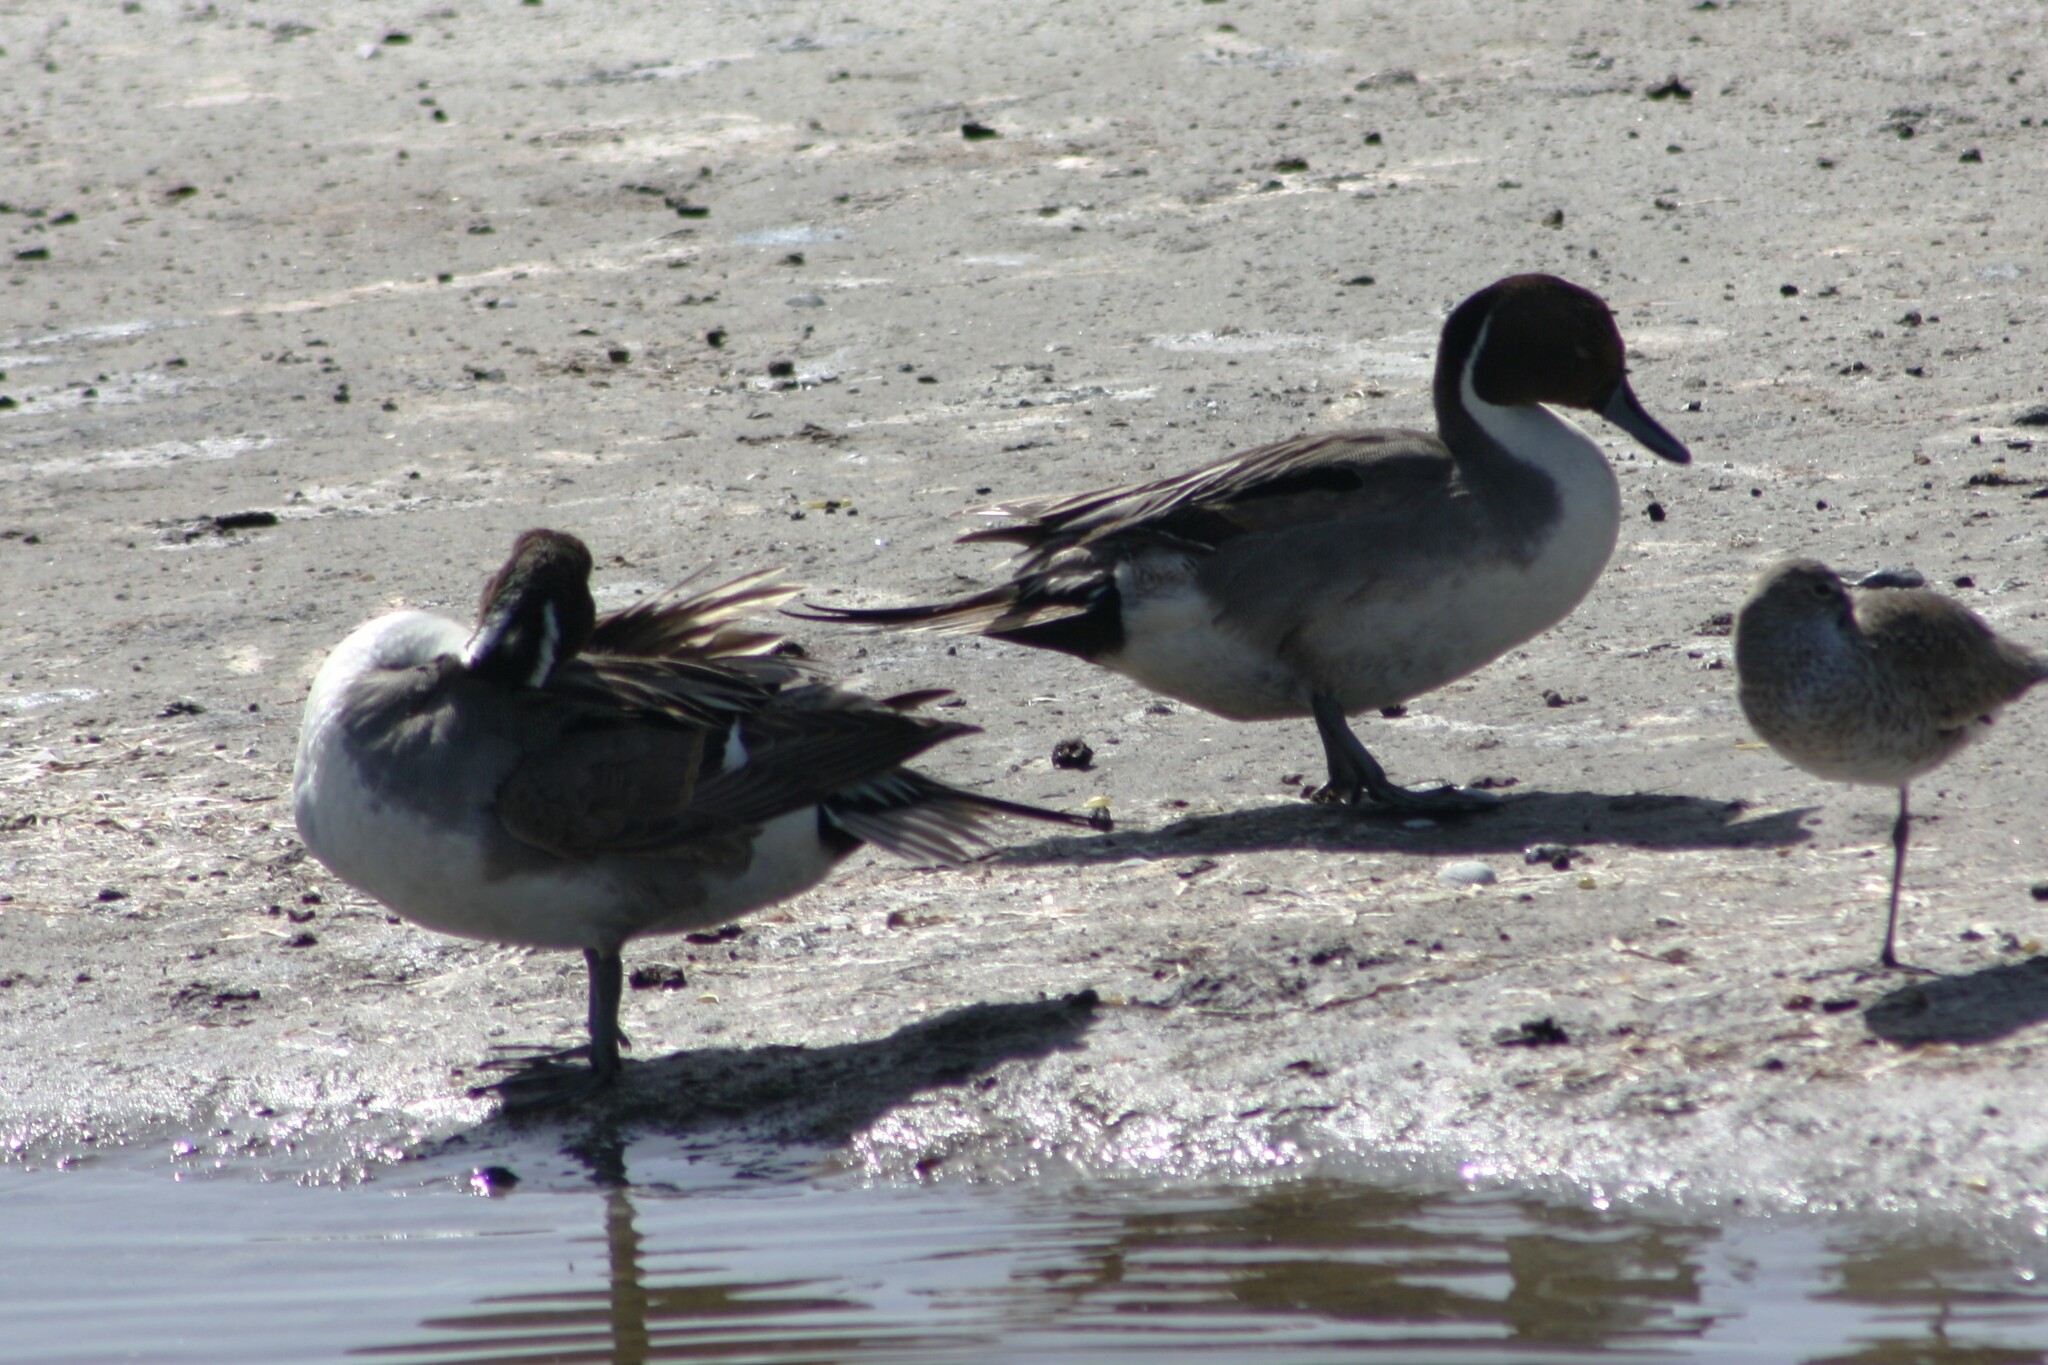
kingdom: Animalia
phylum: Chordata
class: Aves
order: Anseriformes
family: Anatidae
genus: Anas
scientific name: Anas acuta
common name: Northern pintail
